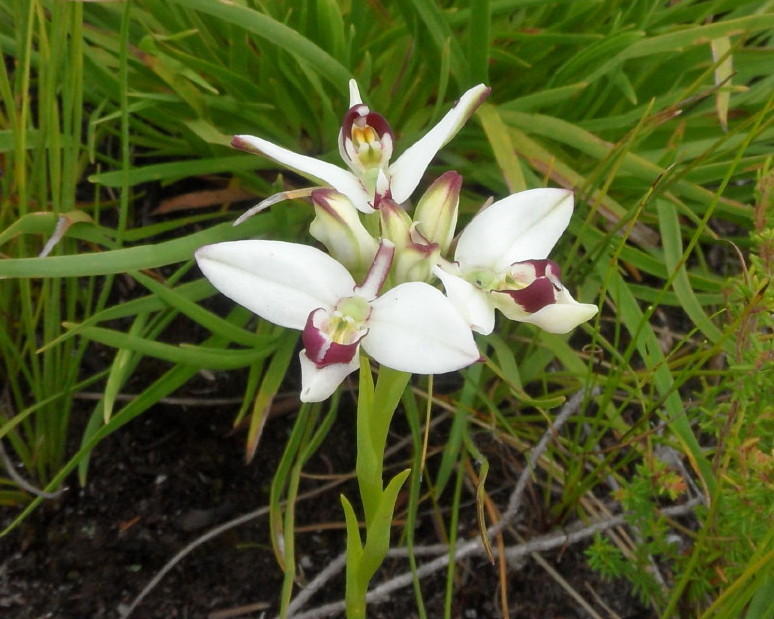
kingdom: Plantae
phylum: Tracheophyta
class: Liliopsida
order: Asparagales
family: Orchidaceae
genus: Disa
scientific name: Disa bivalvata
